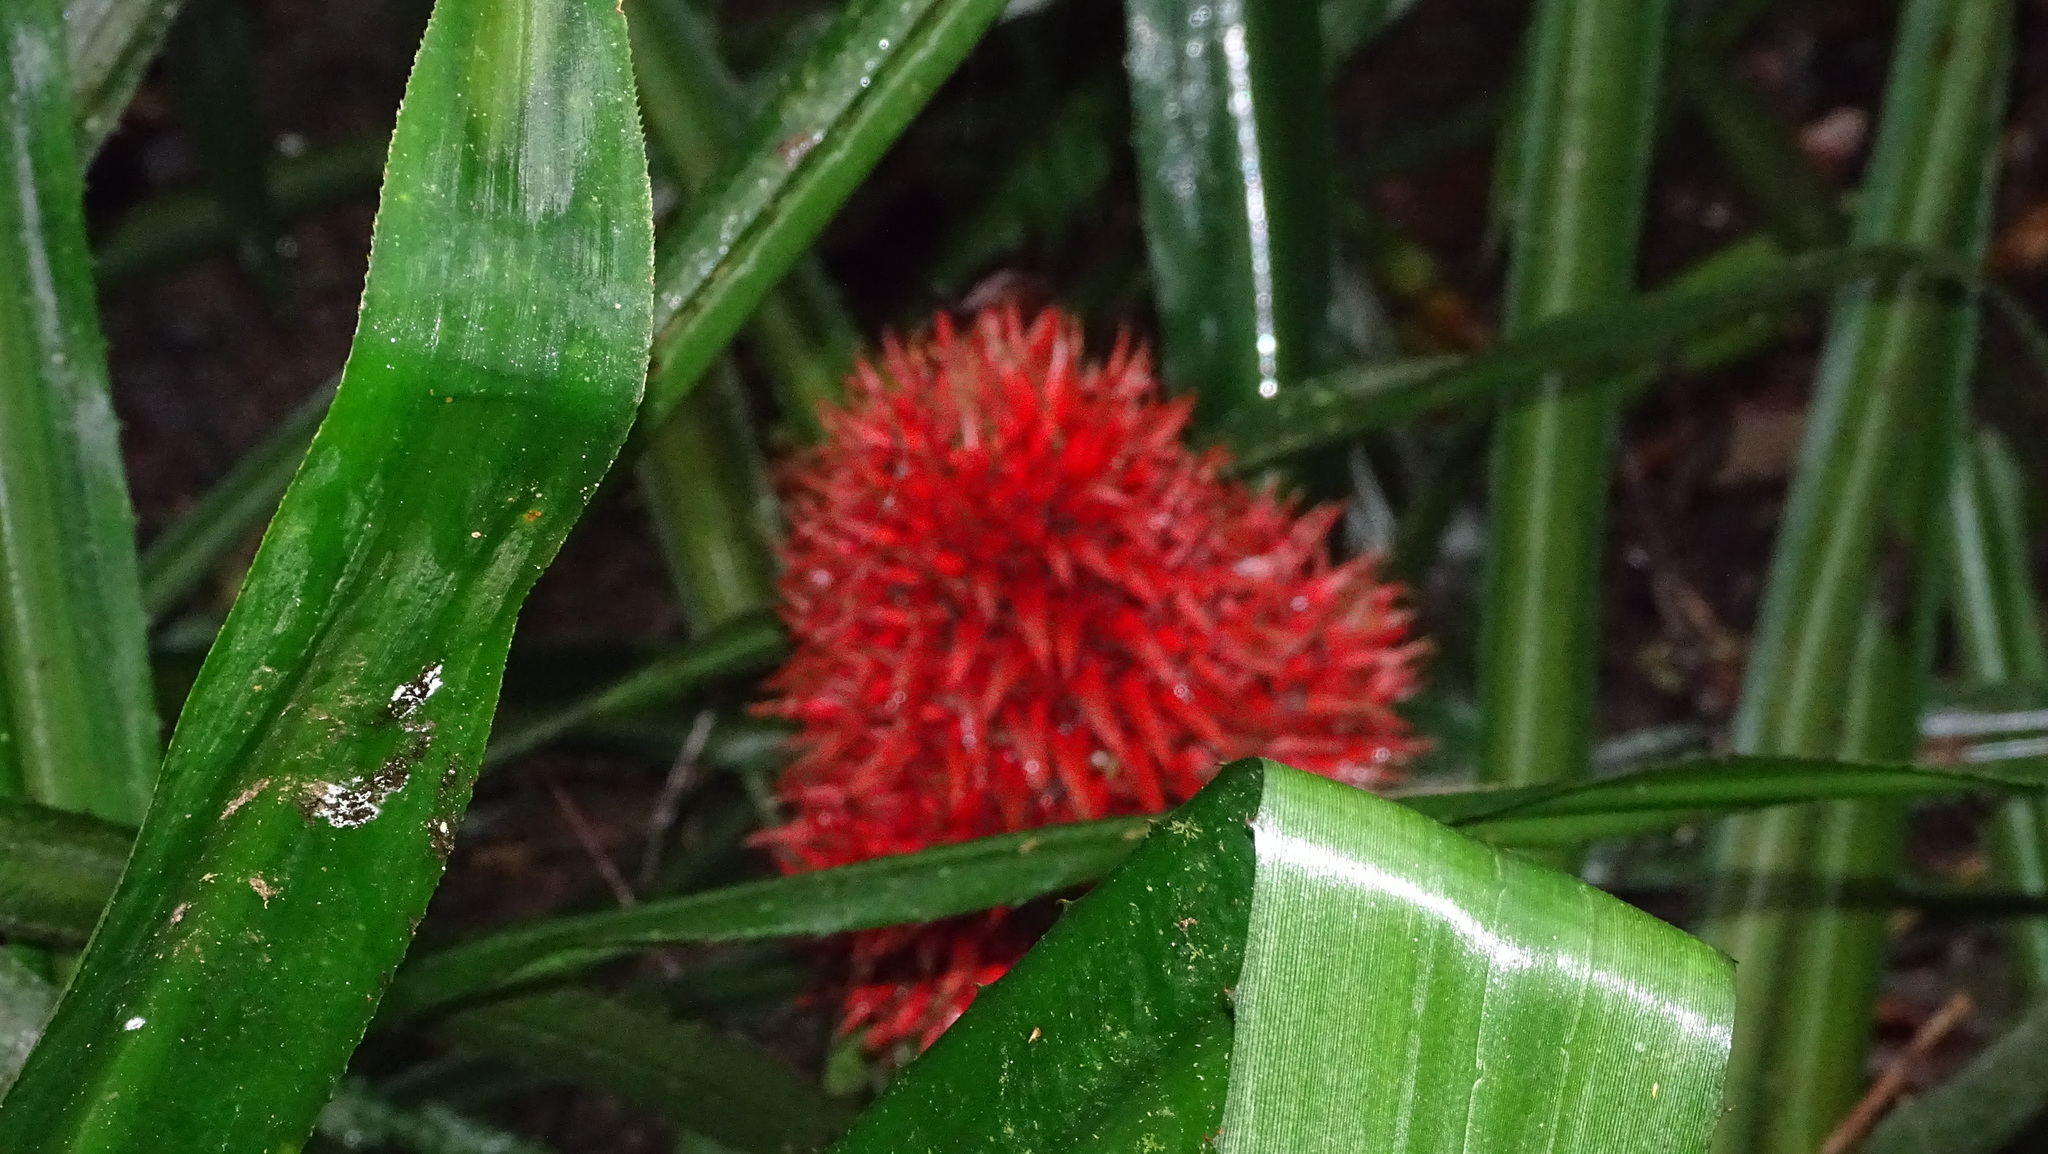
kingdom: Plantae
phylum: Tracheophyta
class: Liliopsida
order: Poales
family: Bromeliaceae
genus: Aechmea
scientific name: Aechmea magdalenae
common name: Arghan
